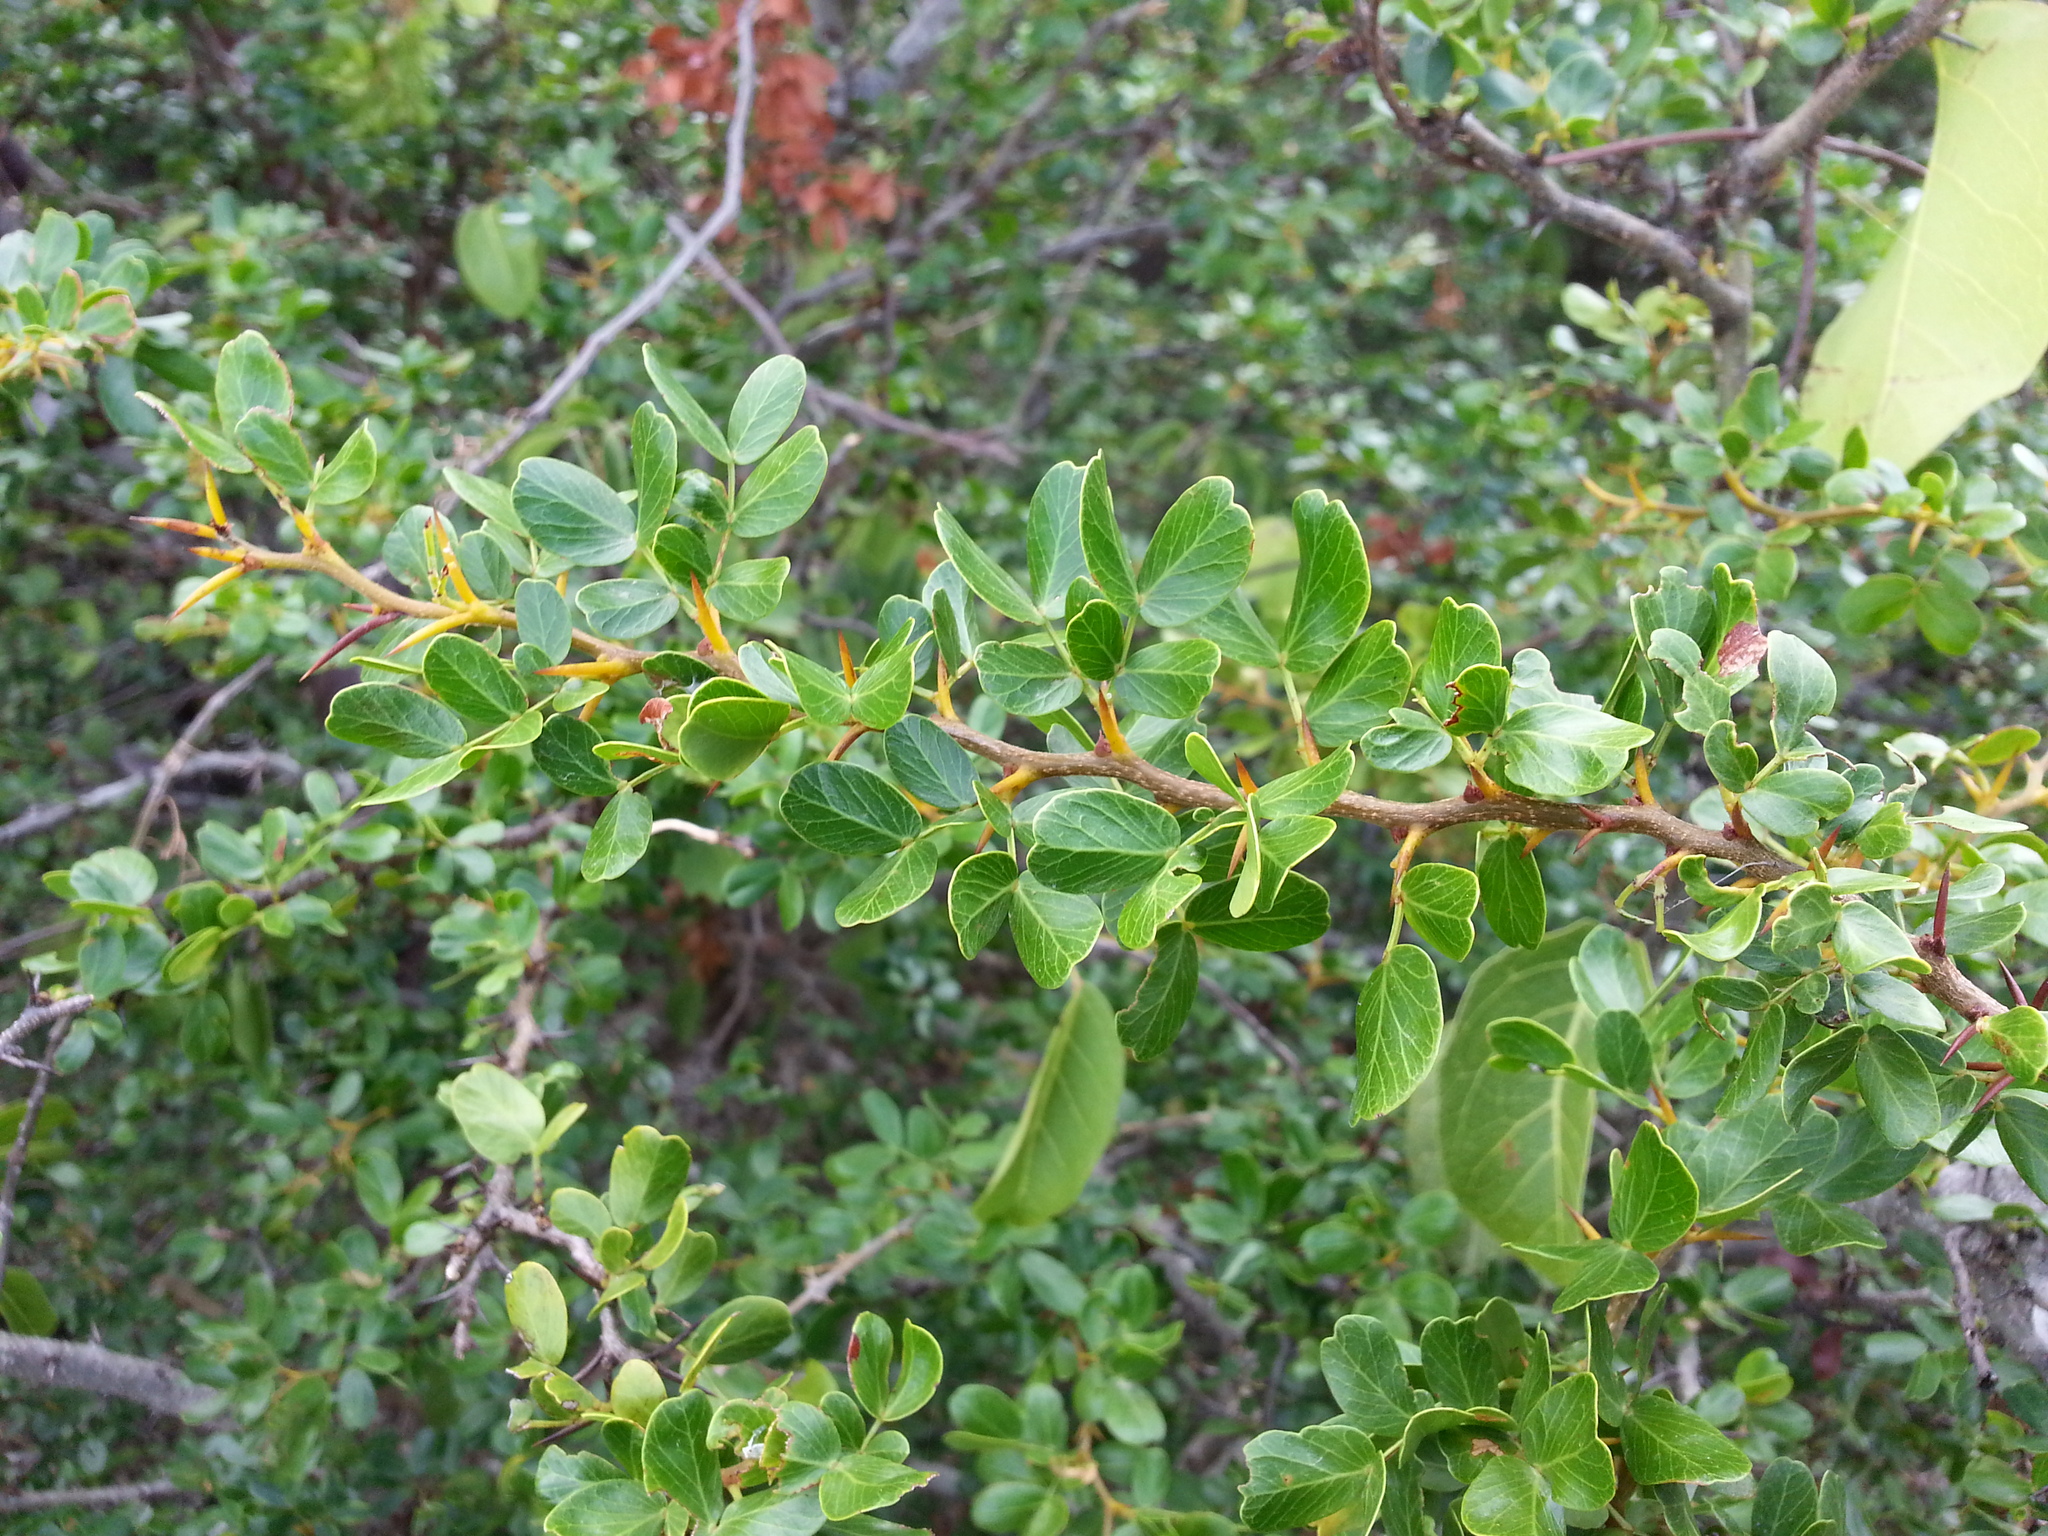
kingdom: Plantae
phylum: Tracheophyta
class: Magnoliopsida
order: Fabales
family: Fabaceae
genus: Vachellia
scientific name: Vachellia anegadensis
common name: Poke-me-boy
